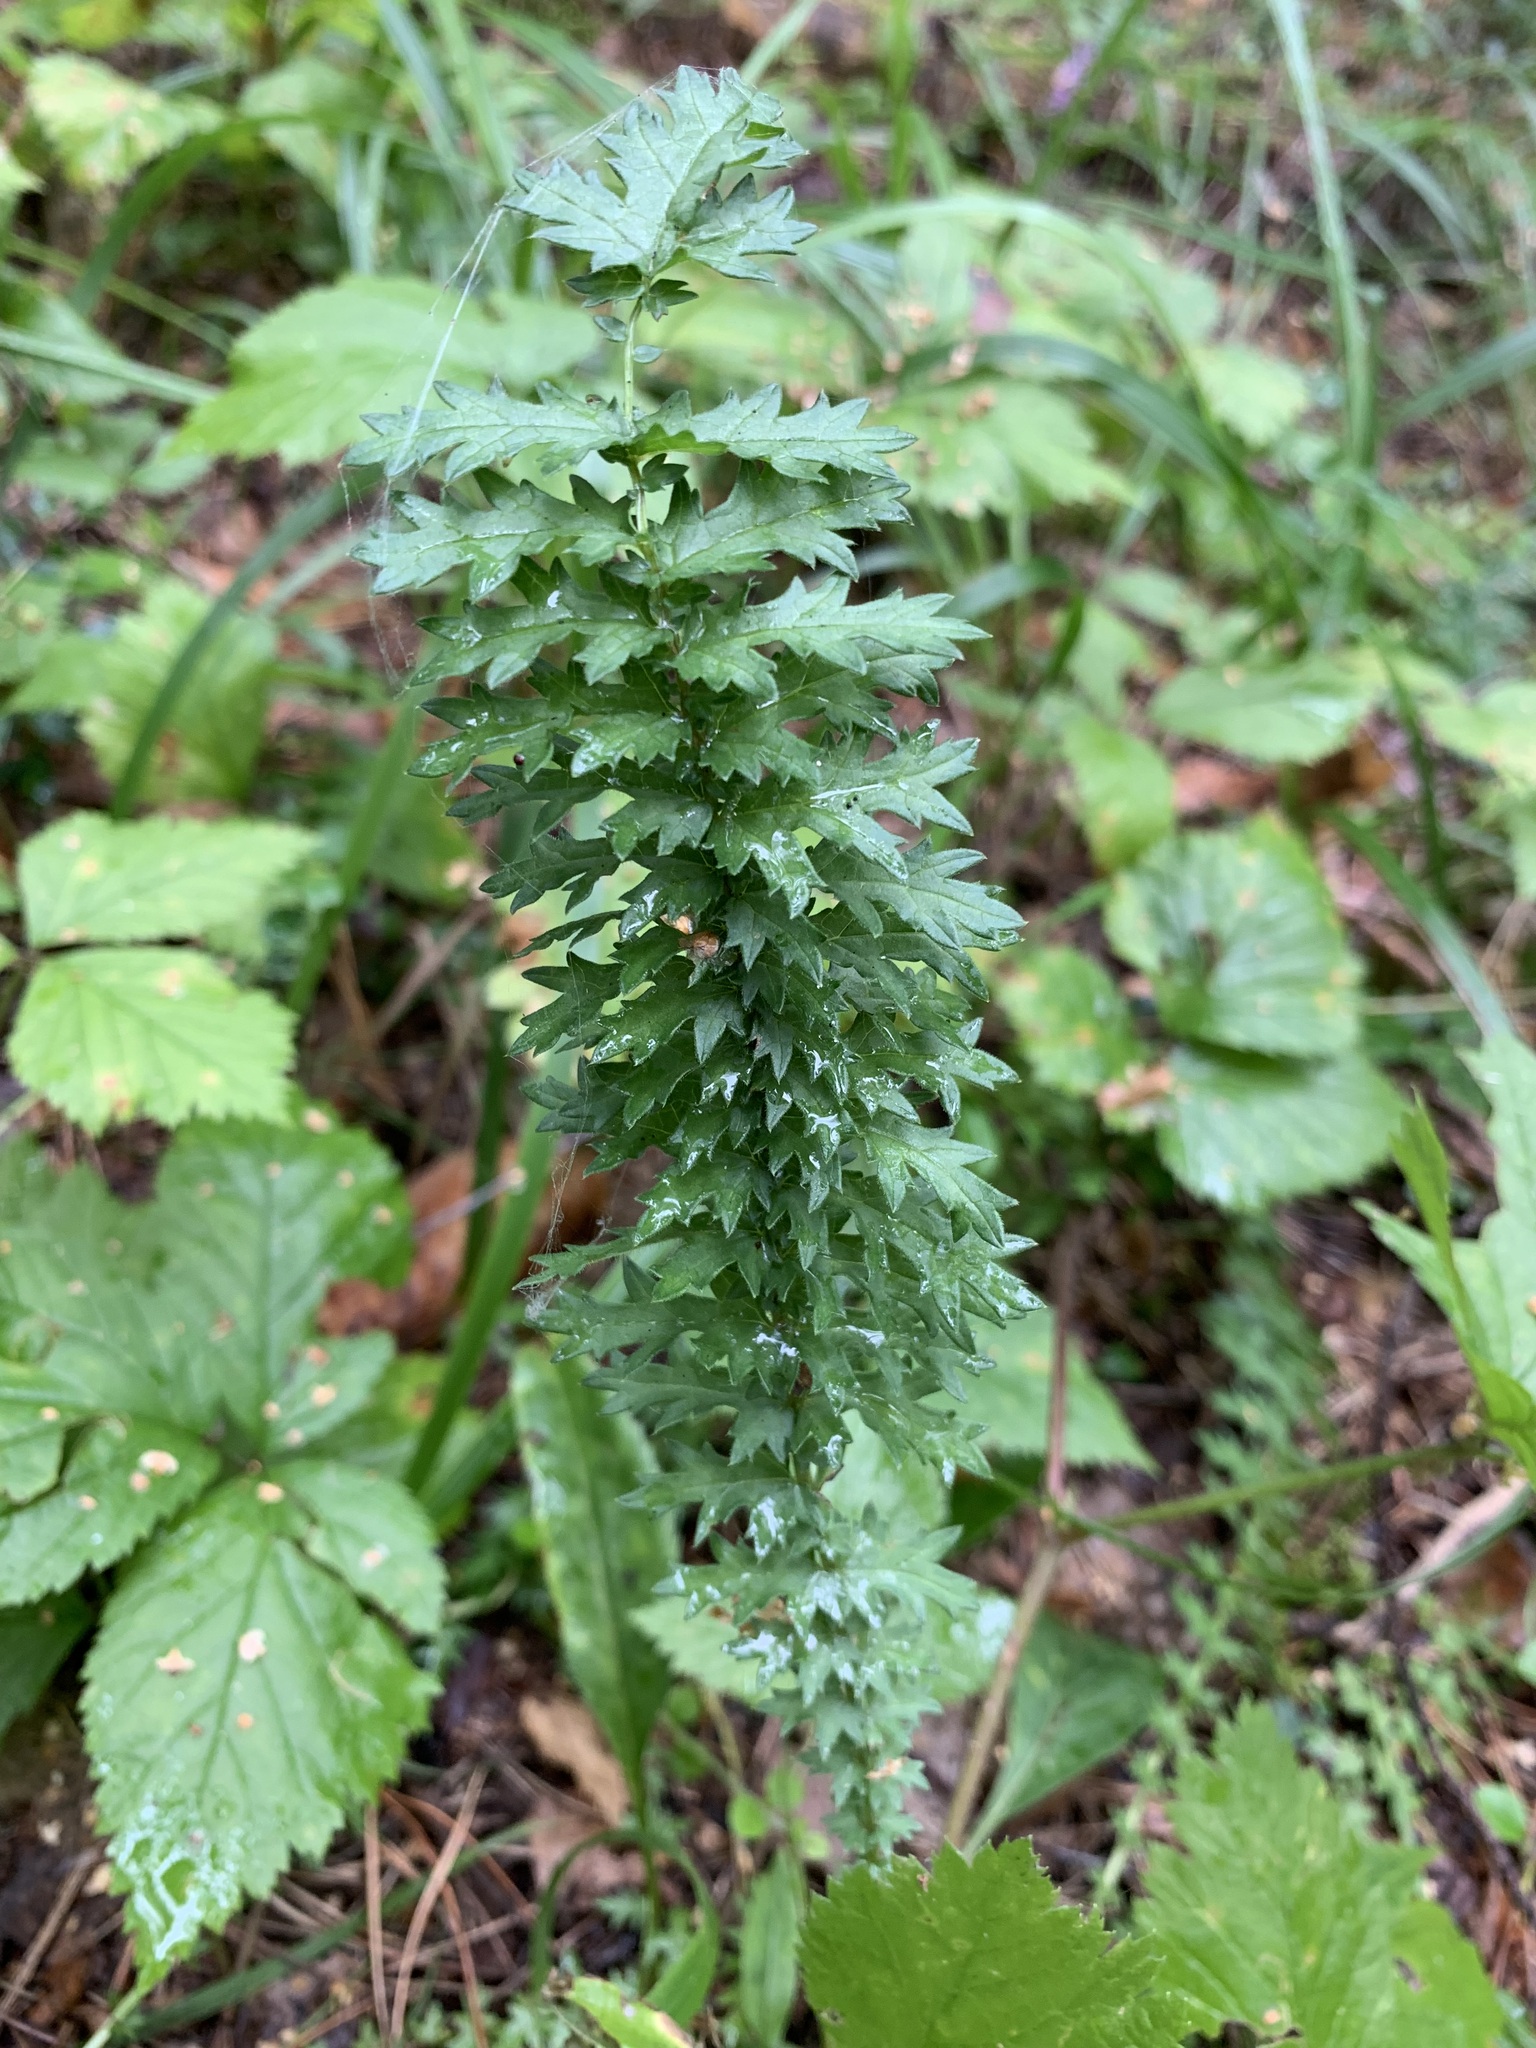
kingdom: Plantae
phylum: Tracheophyta
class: Magnoliopsida
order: Rosales
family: Rosaceae
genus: Filipendula
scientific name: Filipendula vulgaris
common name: Dropwort
